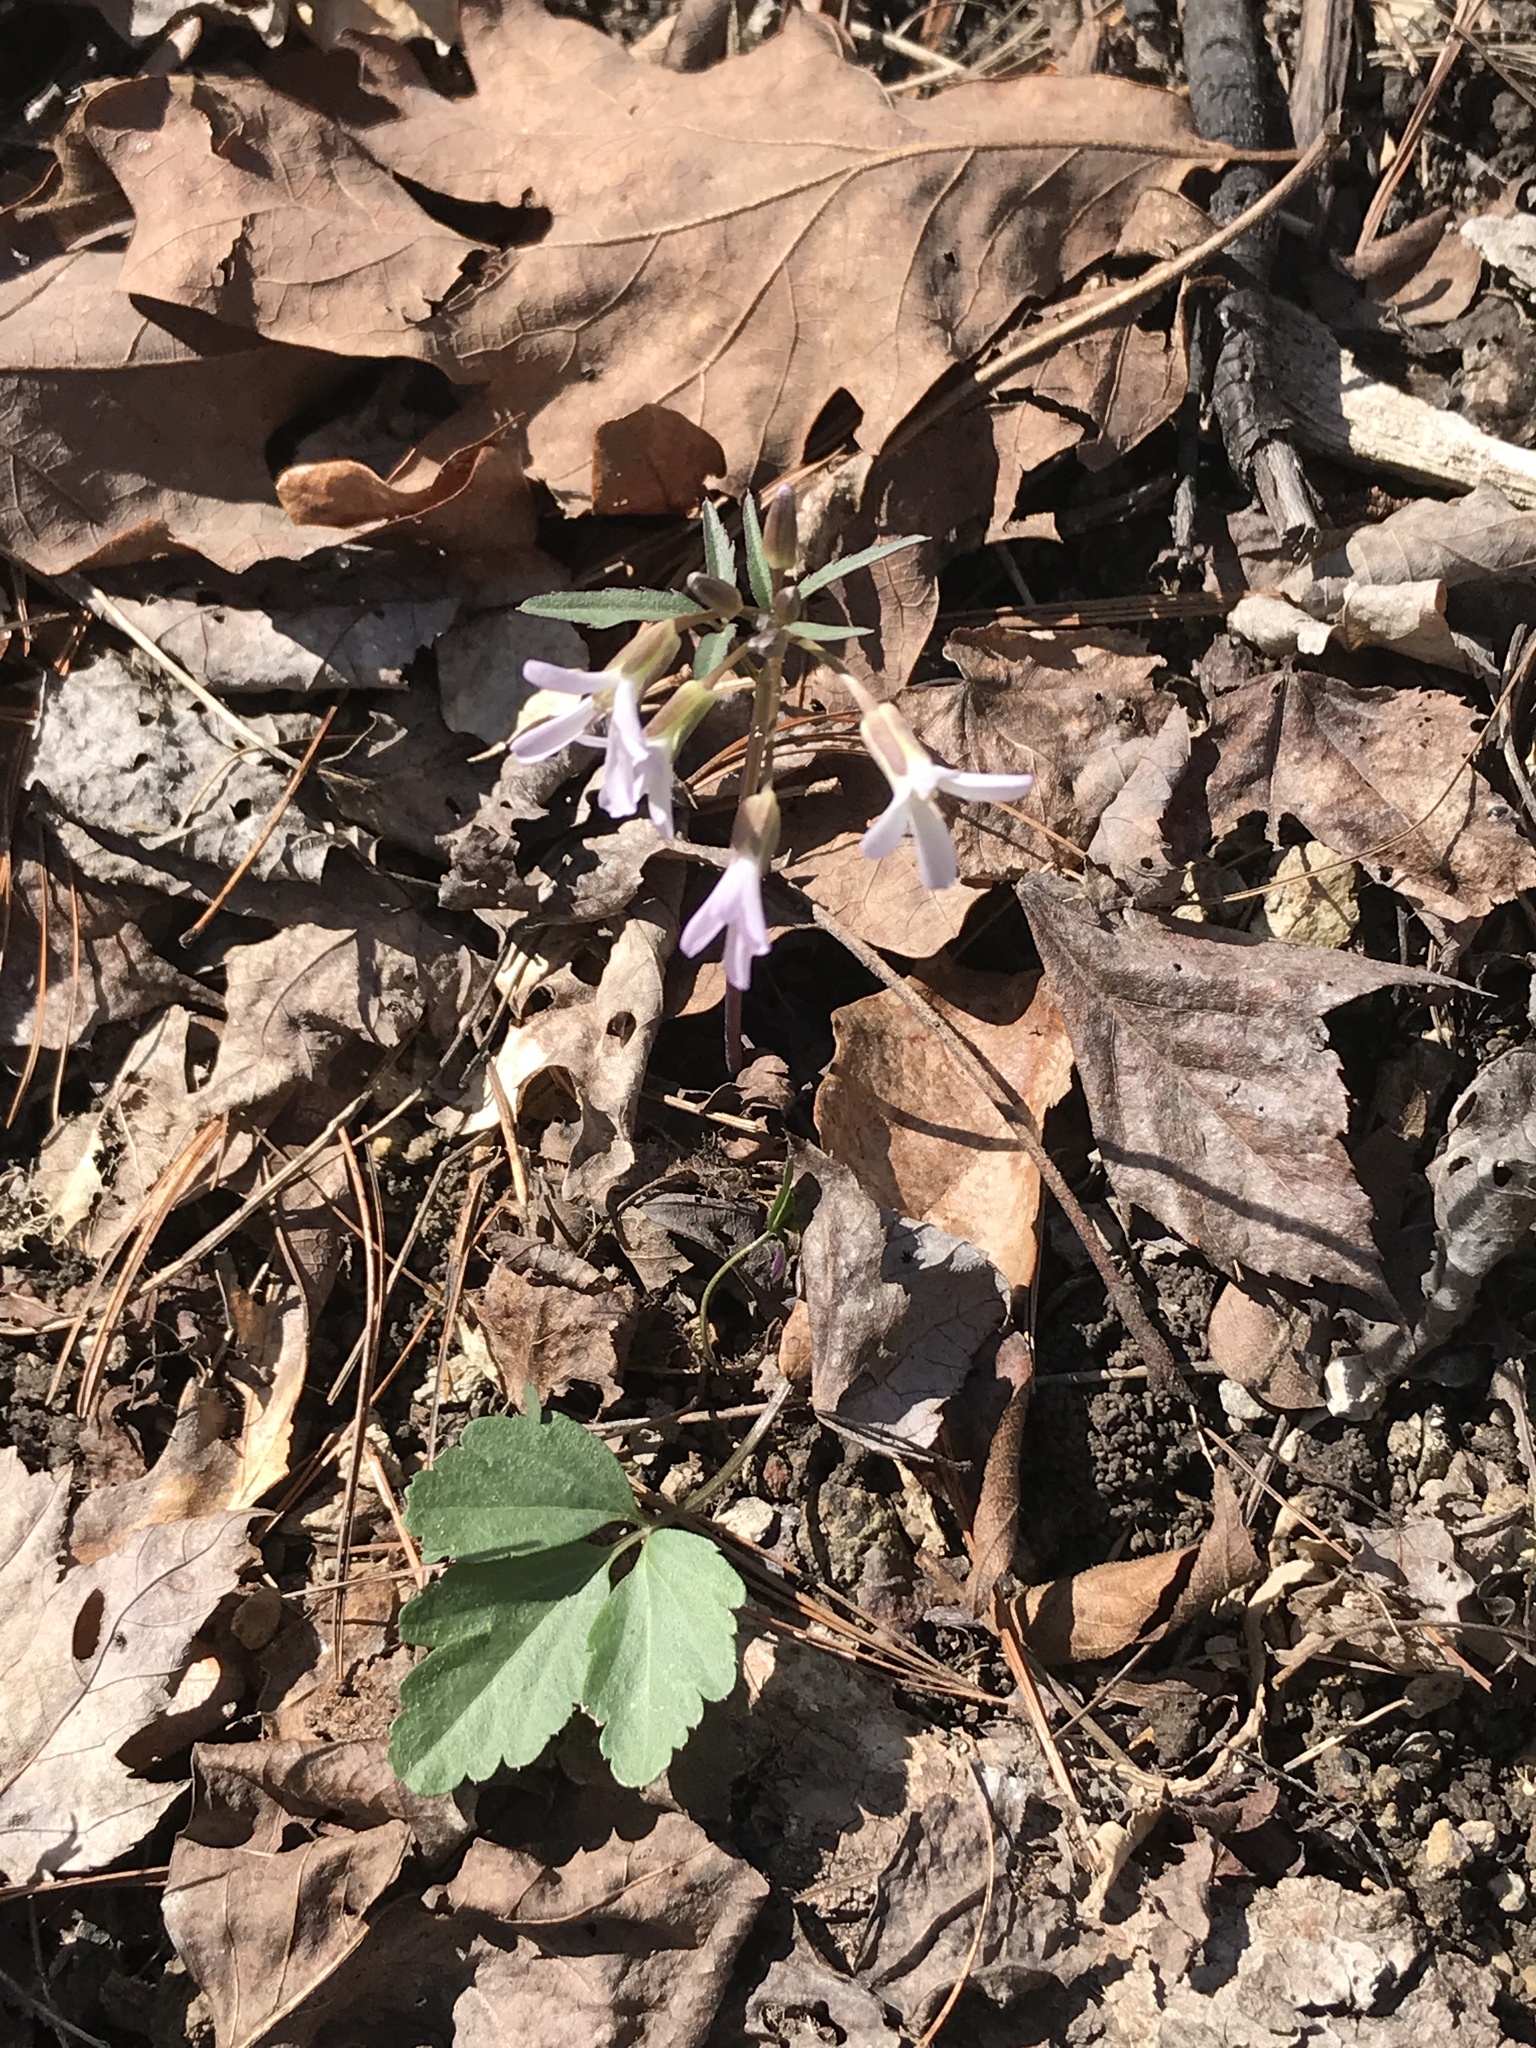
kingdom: Plantae
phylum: Tracheophyta
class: Magnoliopsida
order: Brassicales
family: Brassicaceae
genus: Cardamine
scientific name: Cardamine concatenata
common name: Cut-leaf toothcup
